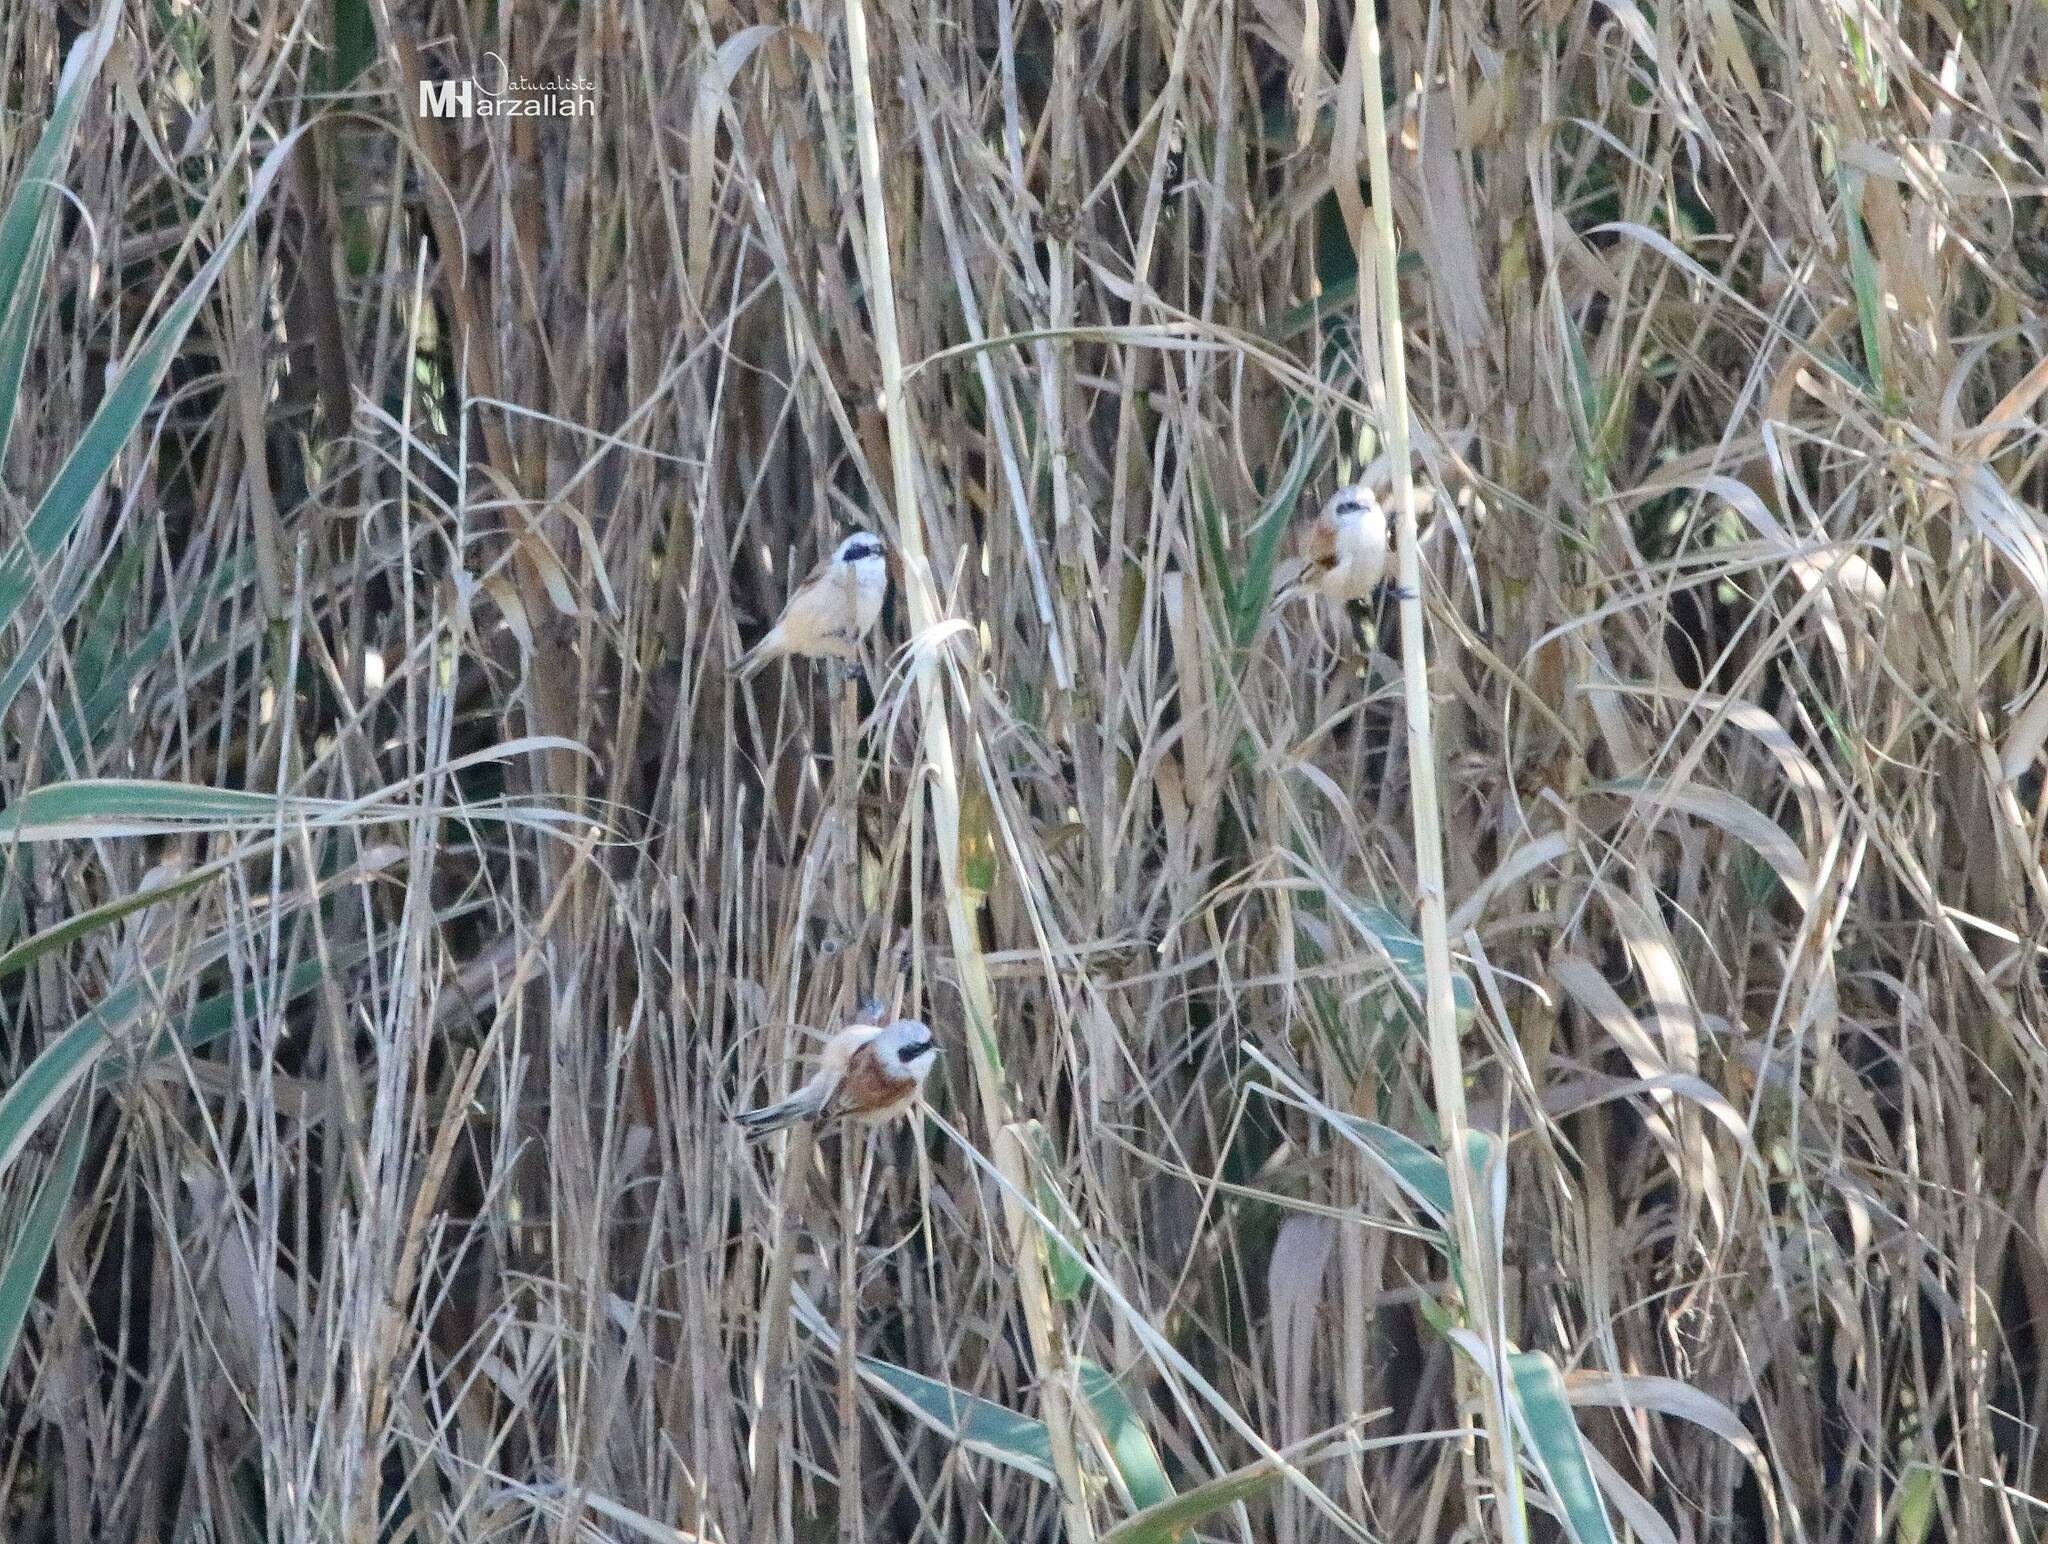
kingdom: Animalia
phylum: Chordata
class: Aves
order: Passeriformes
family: Remizidae
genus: Remiz
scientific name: Remiz pendulinus
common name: Eurasian penduline tit
